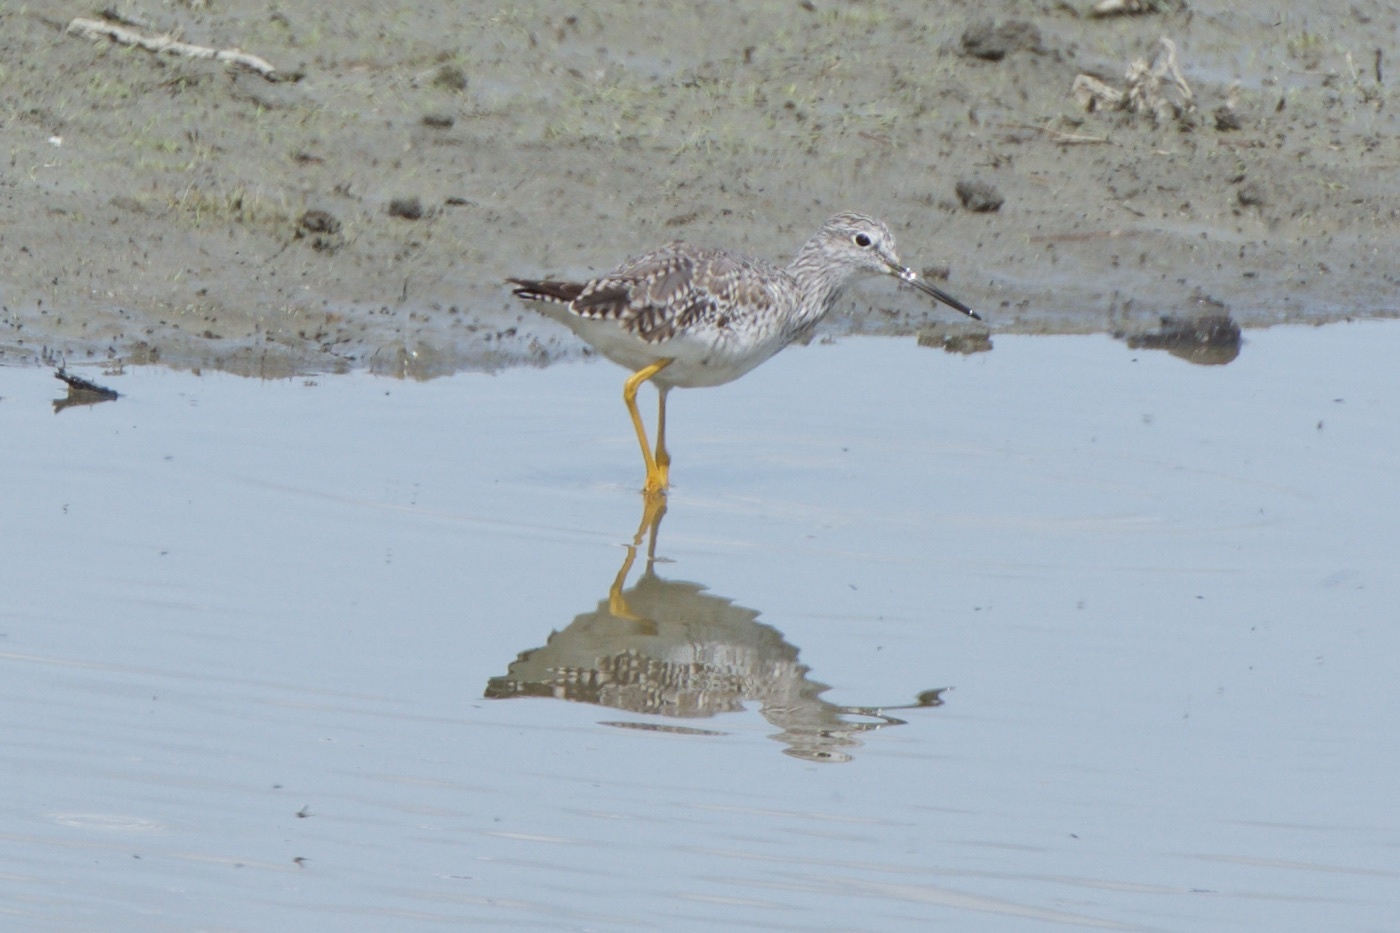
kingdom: Animalia
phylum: Chordata
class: Aves
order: Charadriiformes
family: Scolopacidae
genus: Tringa
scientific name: Tringa melanoleuca
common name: Greater yellowlegs
